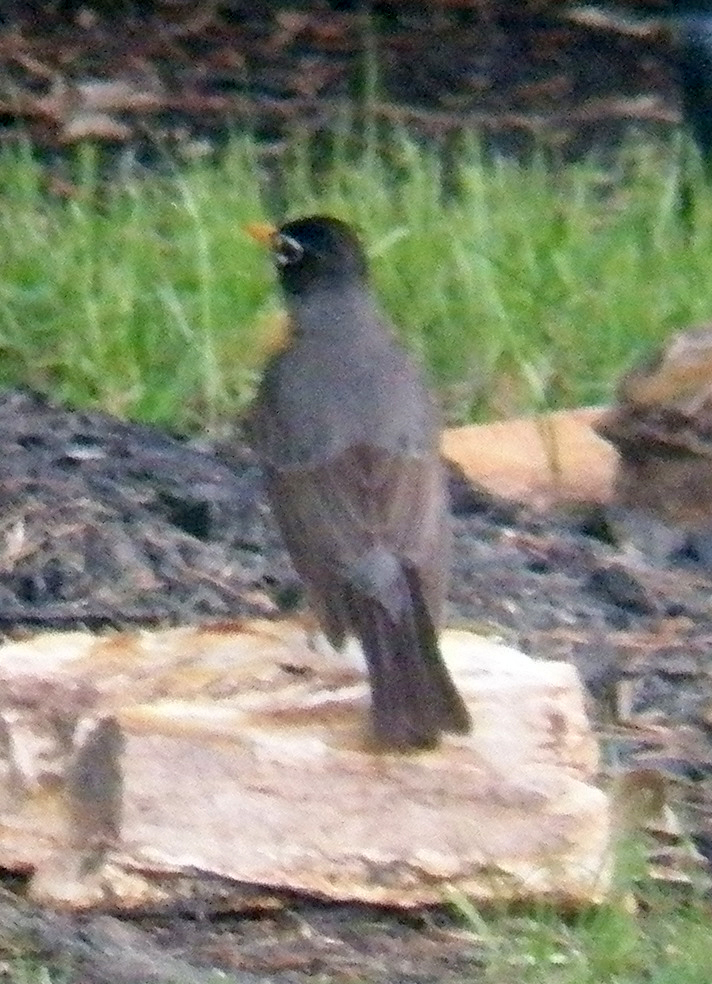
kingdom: Animalia
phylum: Chordata
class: Aves
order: Passeriformes
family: Turdidae
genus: Turdus
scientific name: Turdus migratorius
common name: American robin
